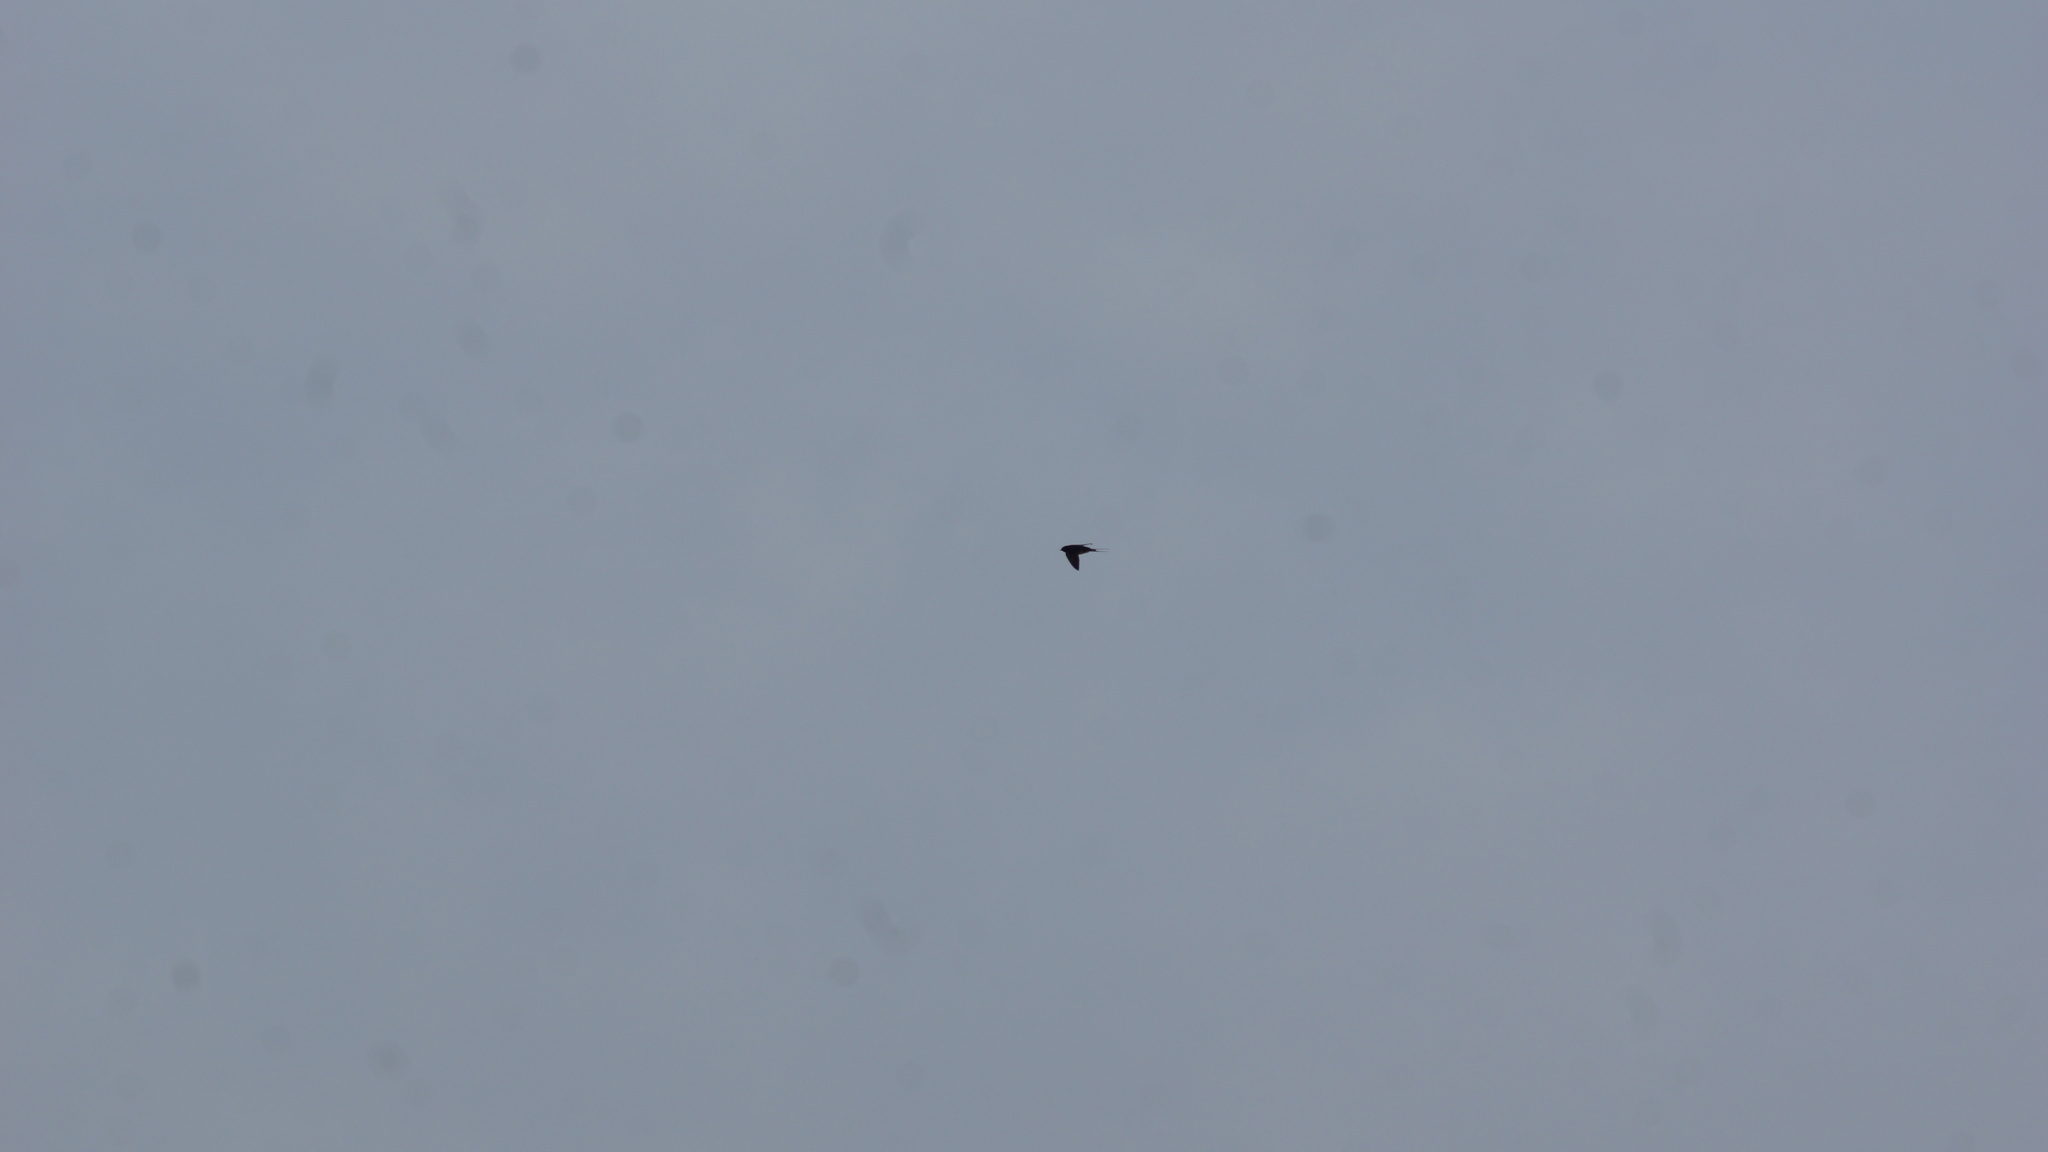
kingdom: Animalia
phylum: Chordata
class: Aves
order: Passeriformes
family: Hirundinidae
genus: Hirundo
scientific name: Hirundo rustica
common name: Barn swallow
